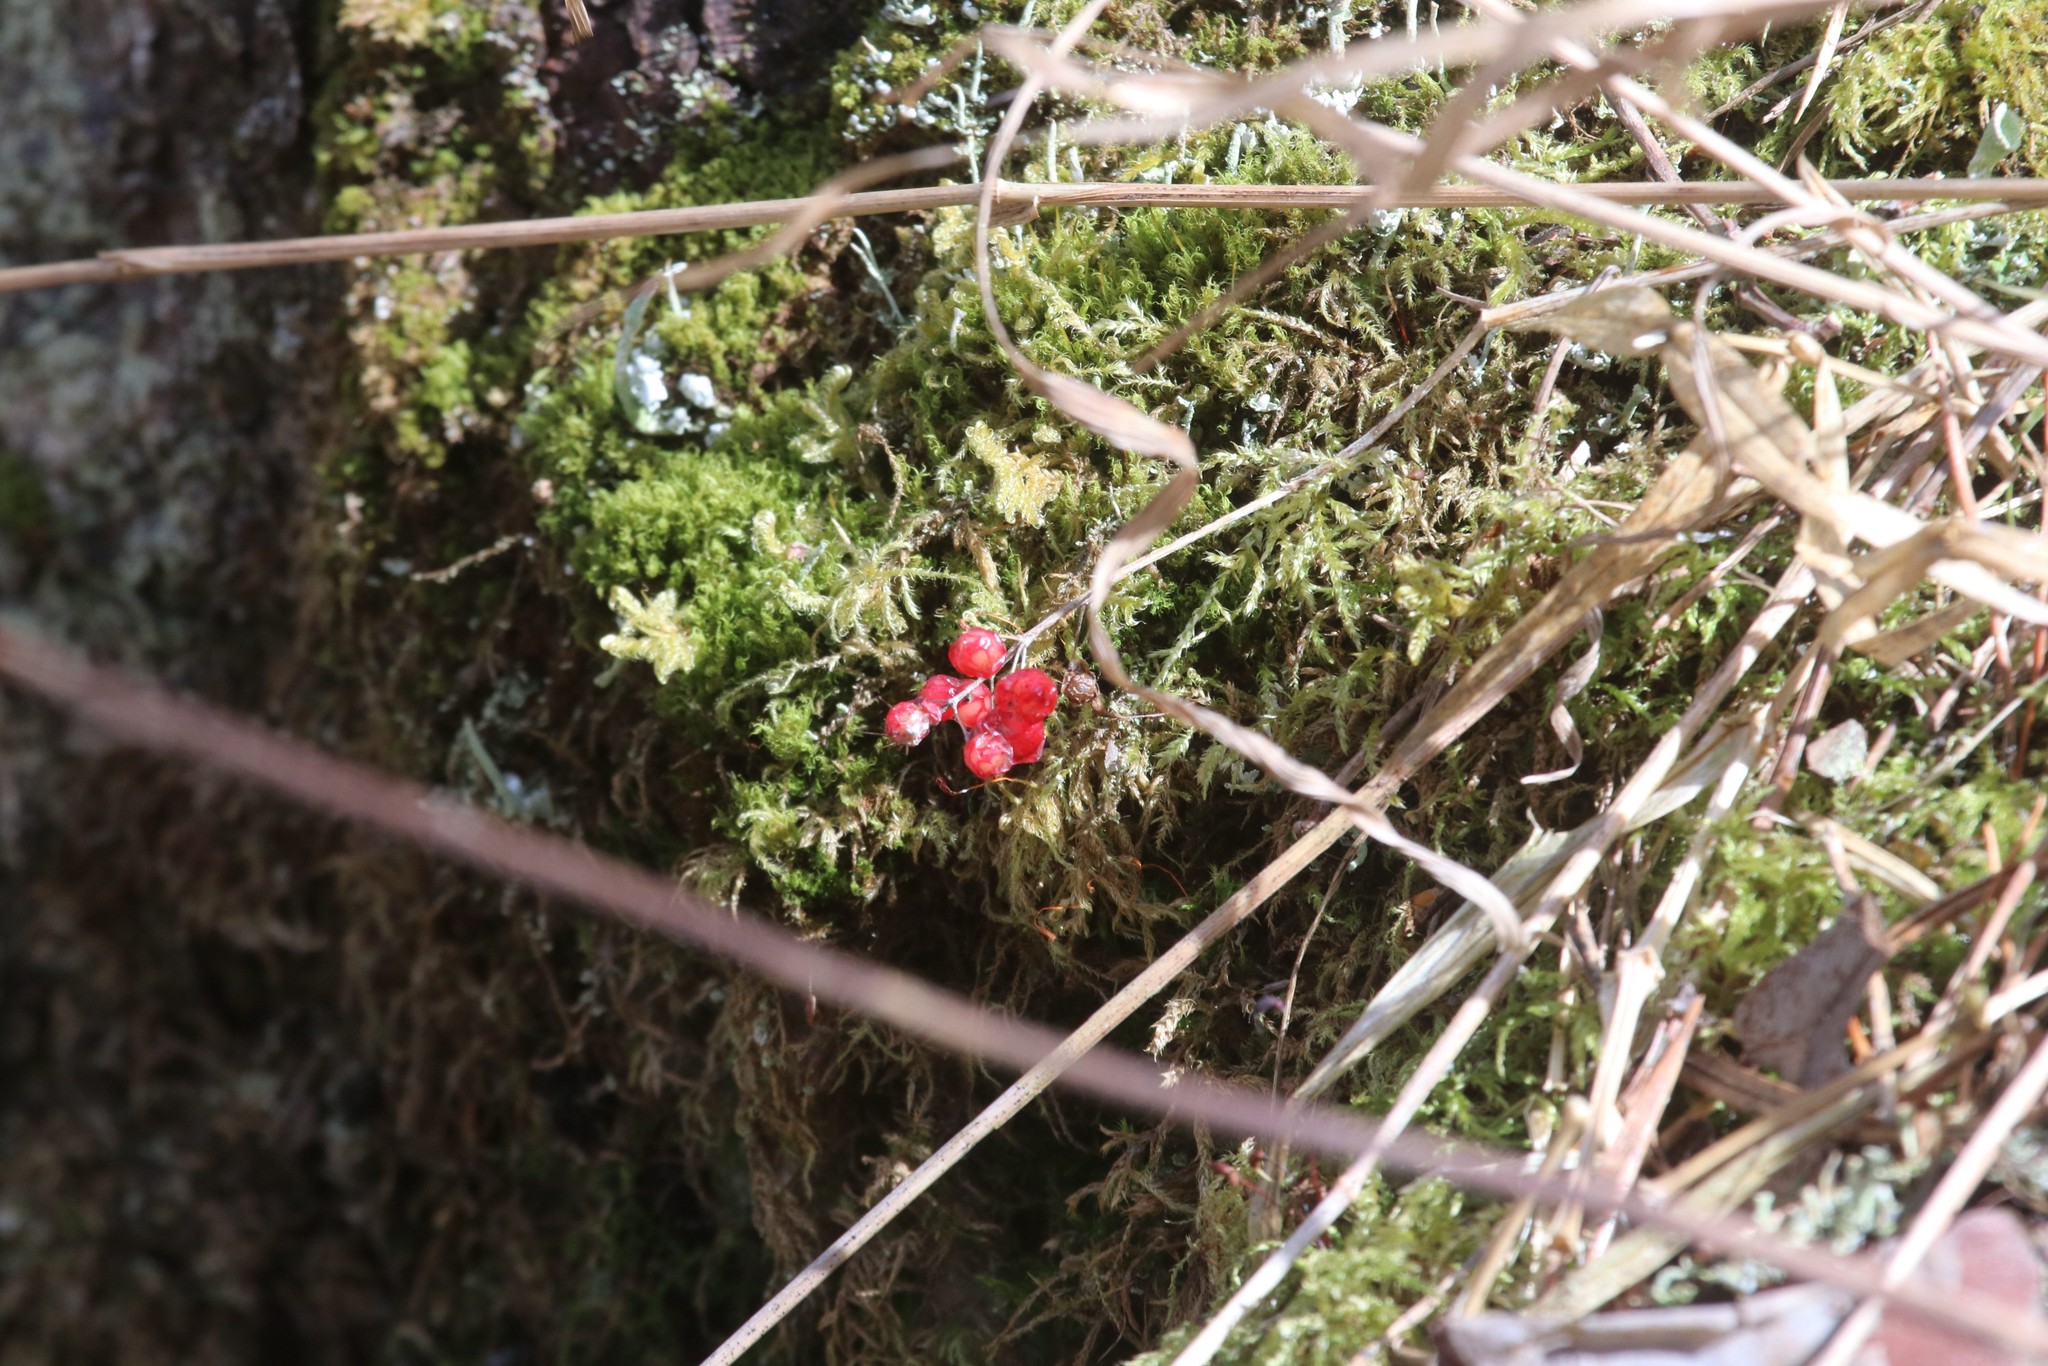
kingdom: Plantae
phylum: Tracheophyta
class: Liliopsida
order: Asparagales
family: Asparagaceae
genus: Maianthemum
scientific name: Maianthemum bifolium
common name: May lily
